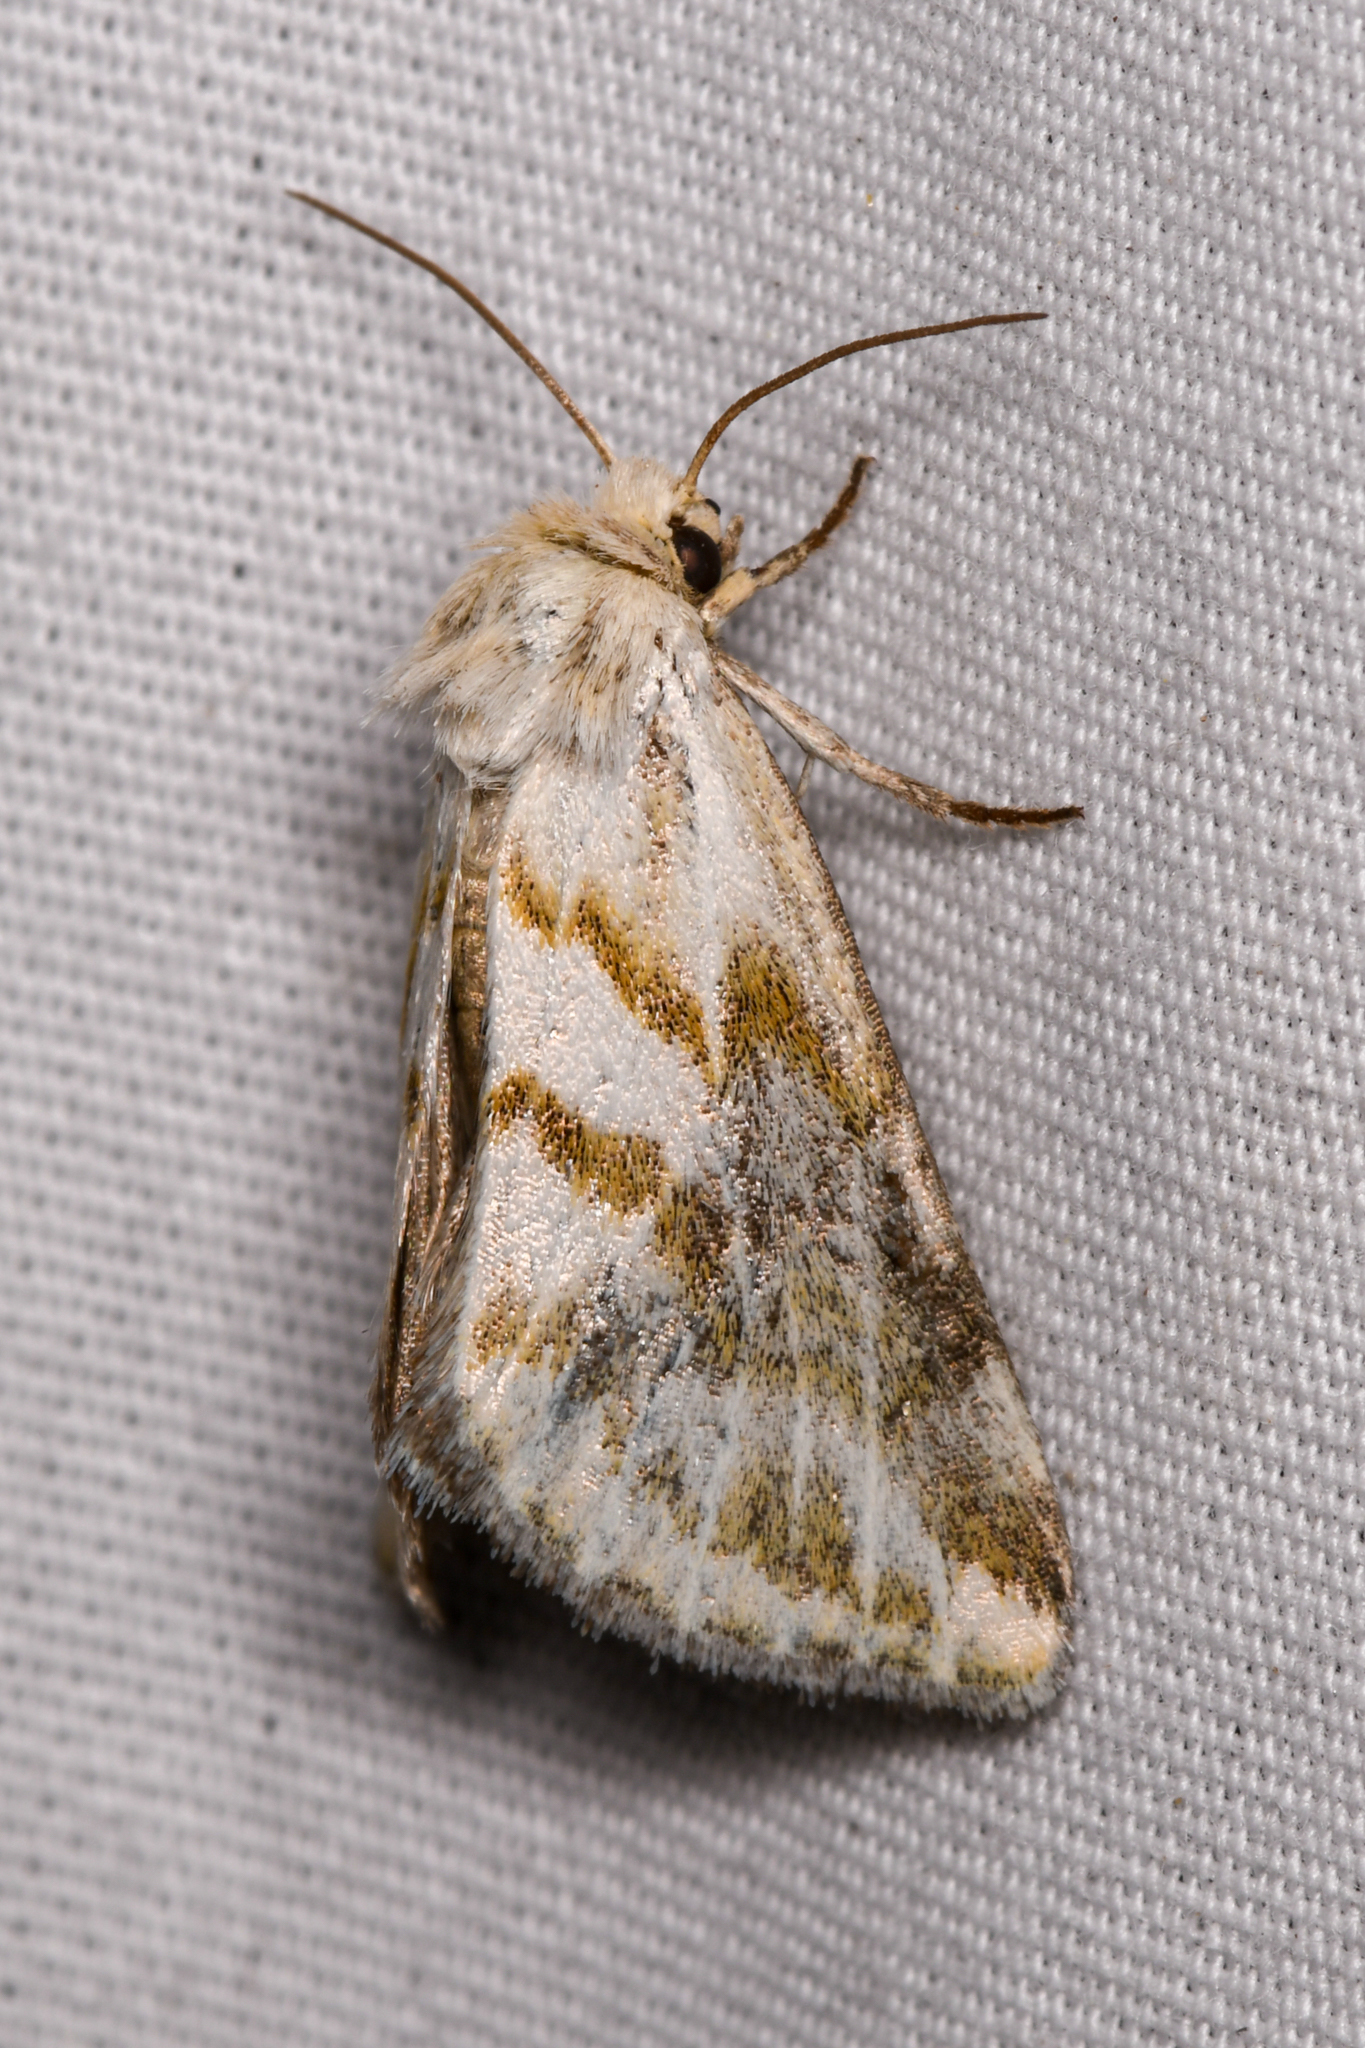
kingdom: Animalia
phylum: Arthropoda
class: Insecta
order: Lepidoptera
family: Noctuidae
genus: Lineostriastiria
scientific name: Lineostriastiria olivalis
